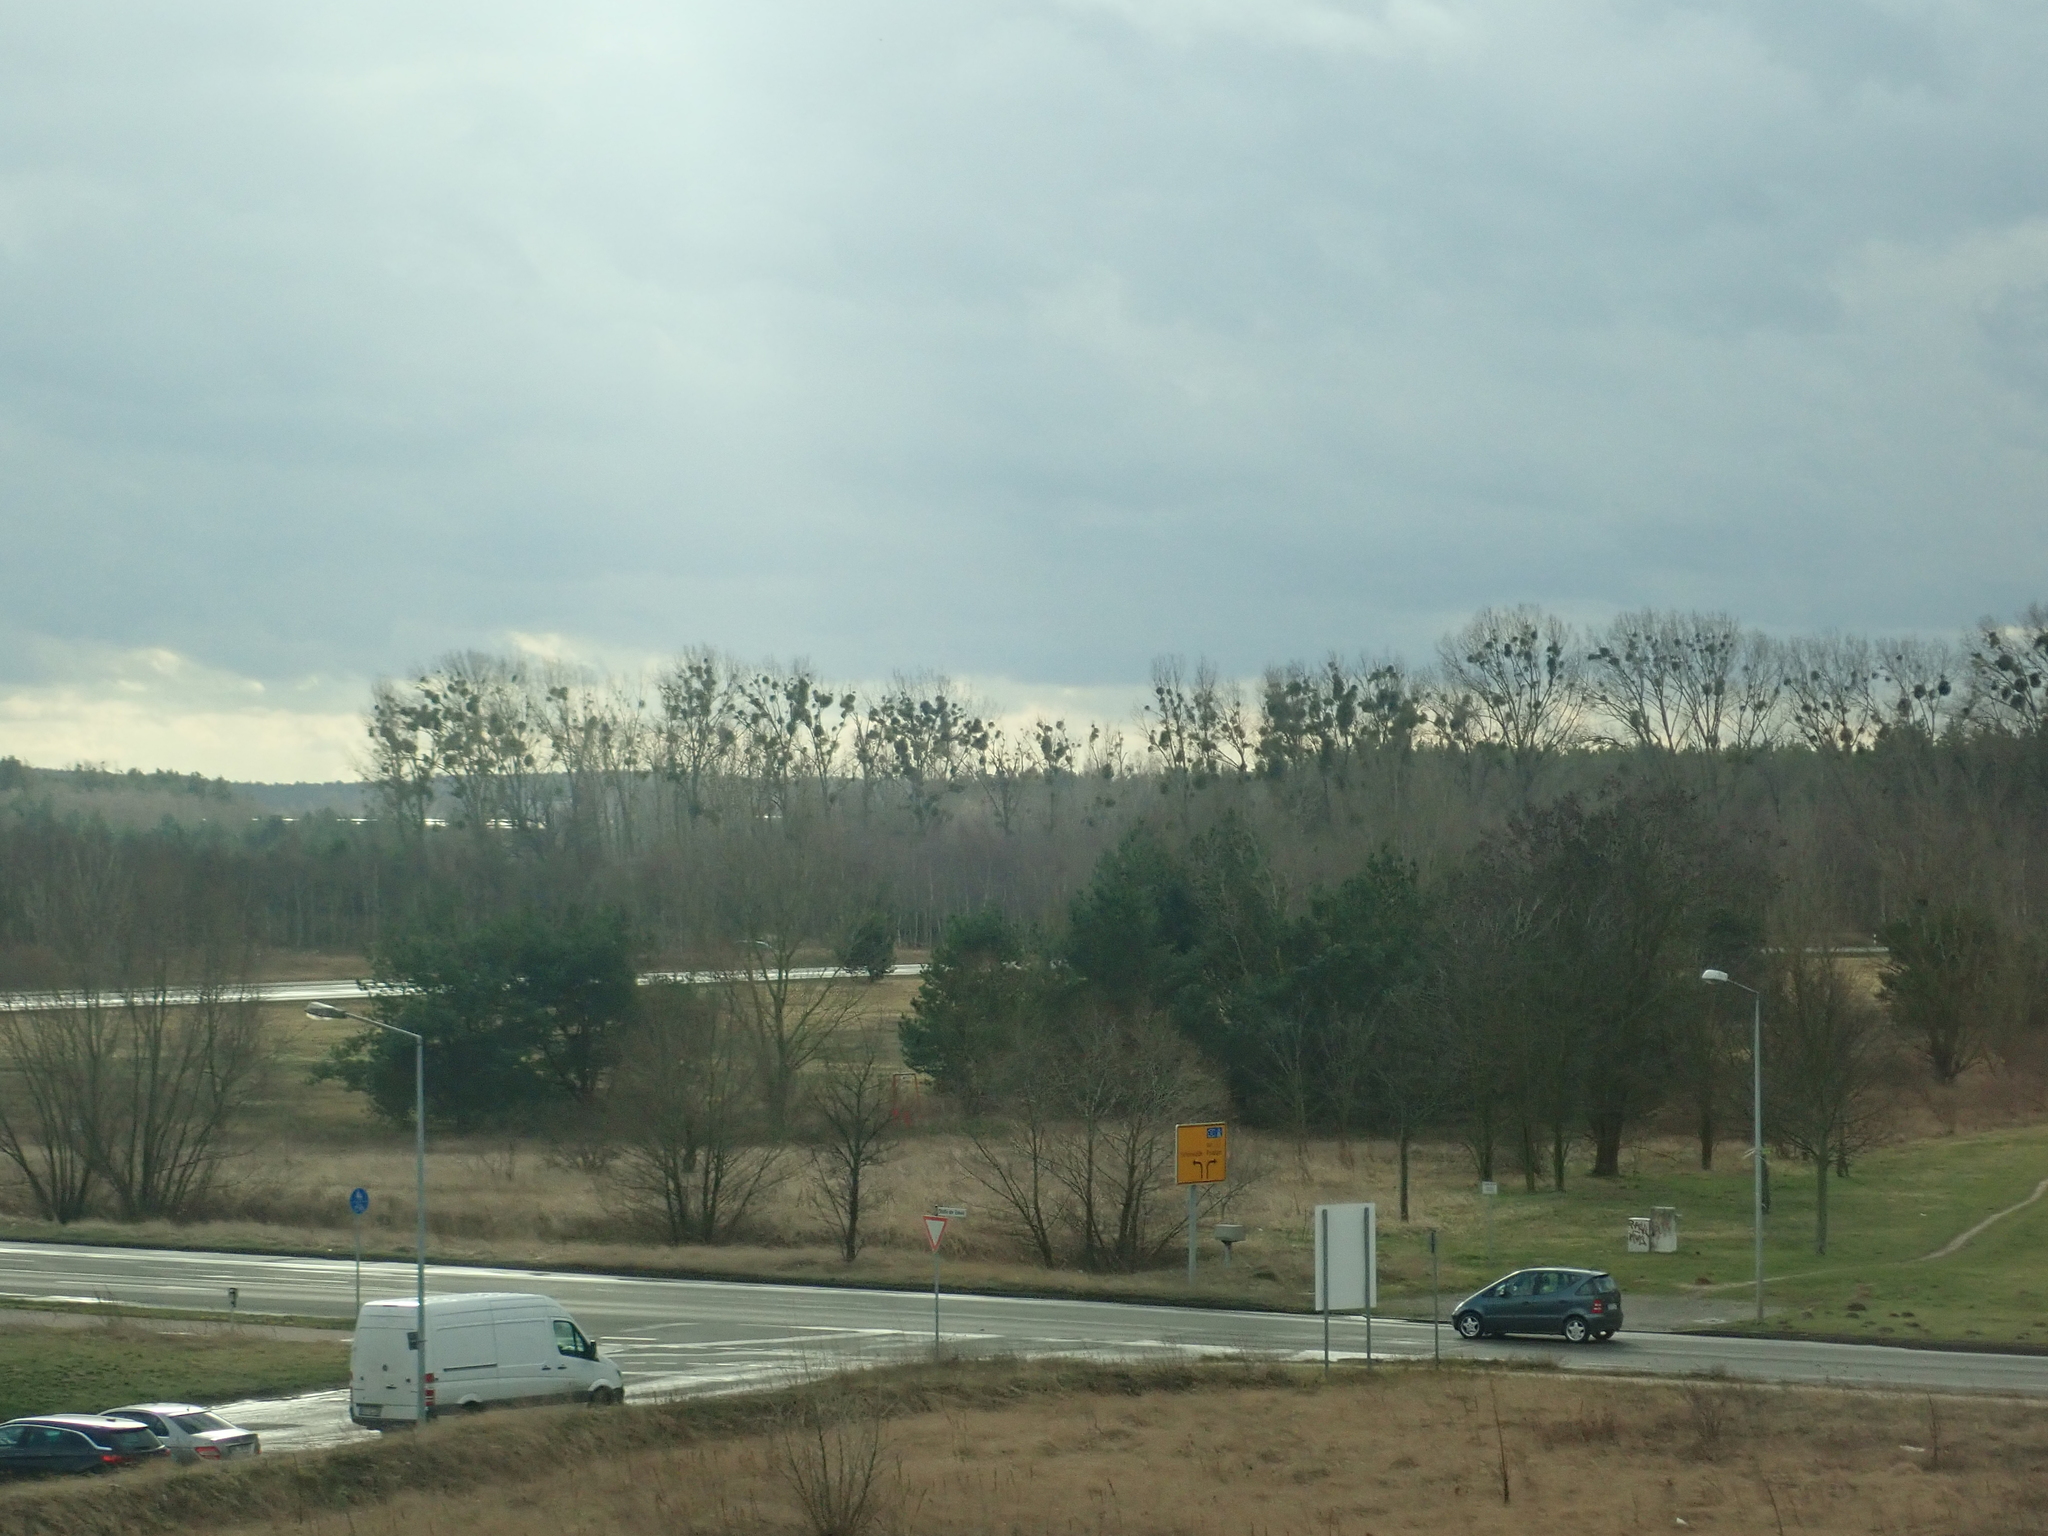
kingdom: Plantae
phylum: Tracheophyta
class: Magnoliopsida
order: Santalales
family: Viscaceae
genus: Viscum
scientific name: Viscum album
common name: Mistletoe
